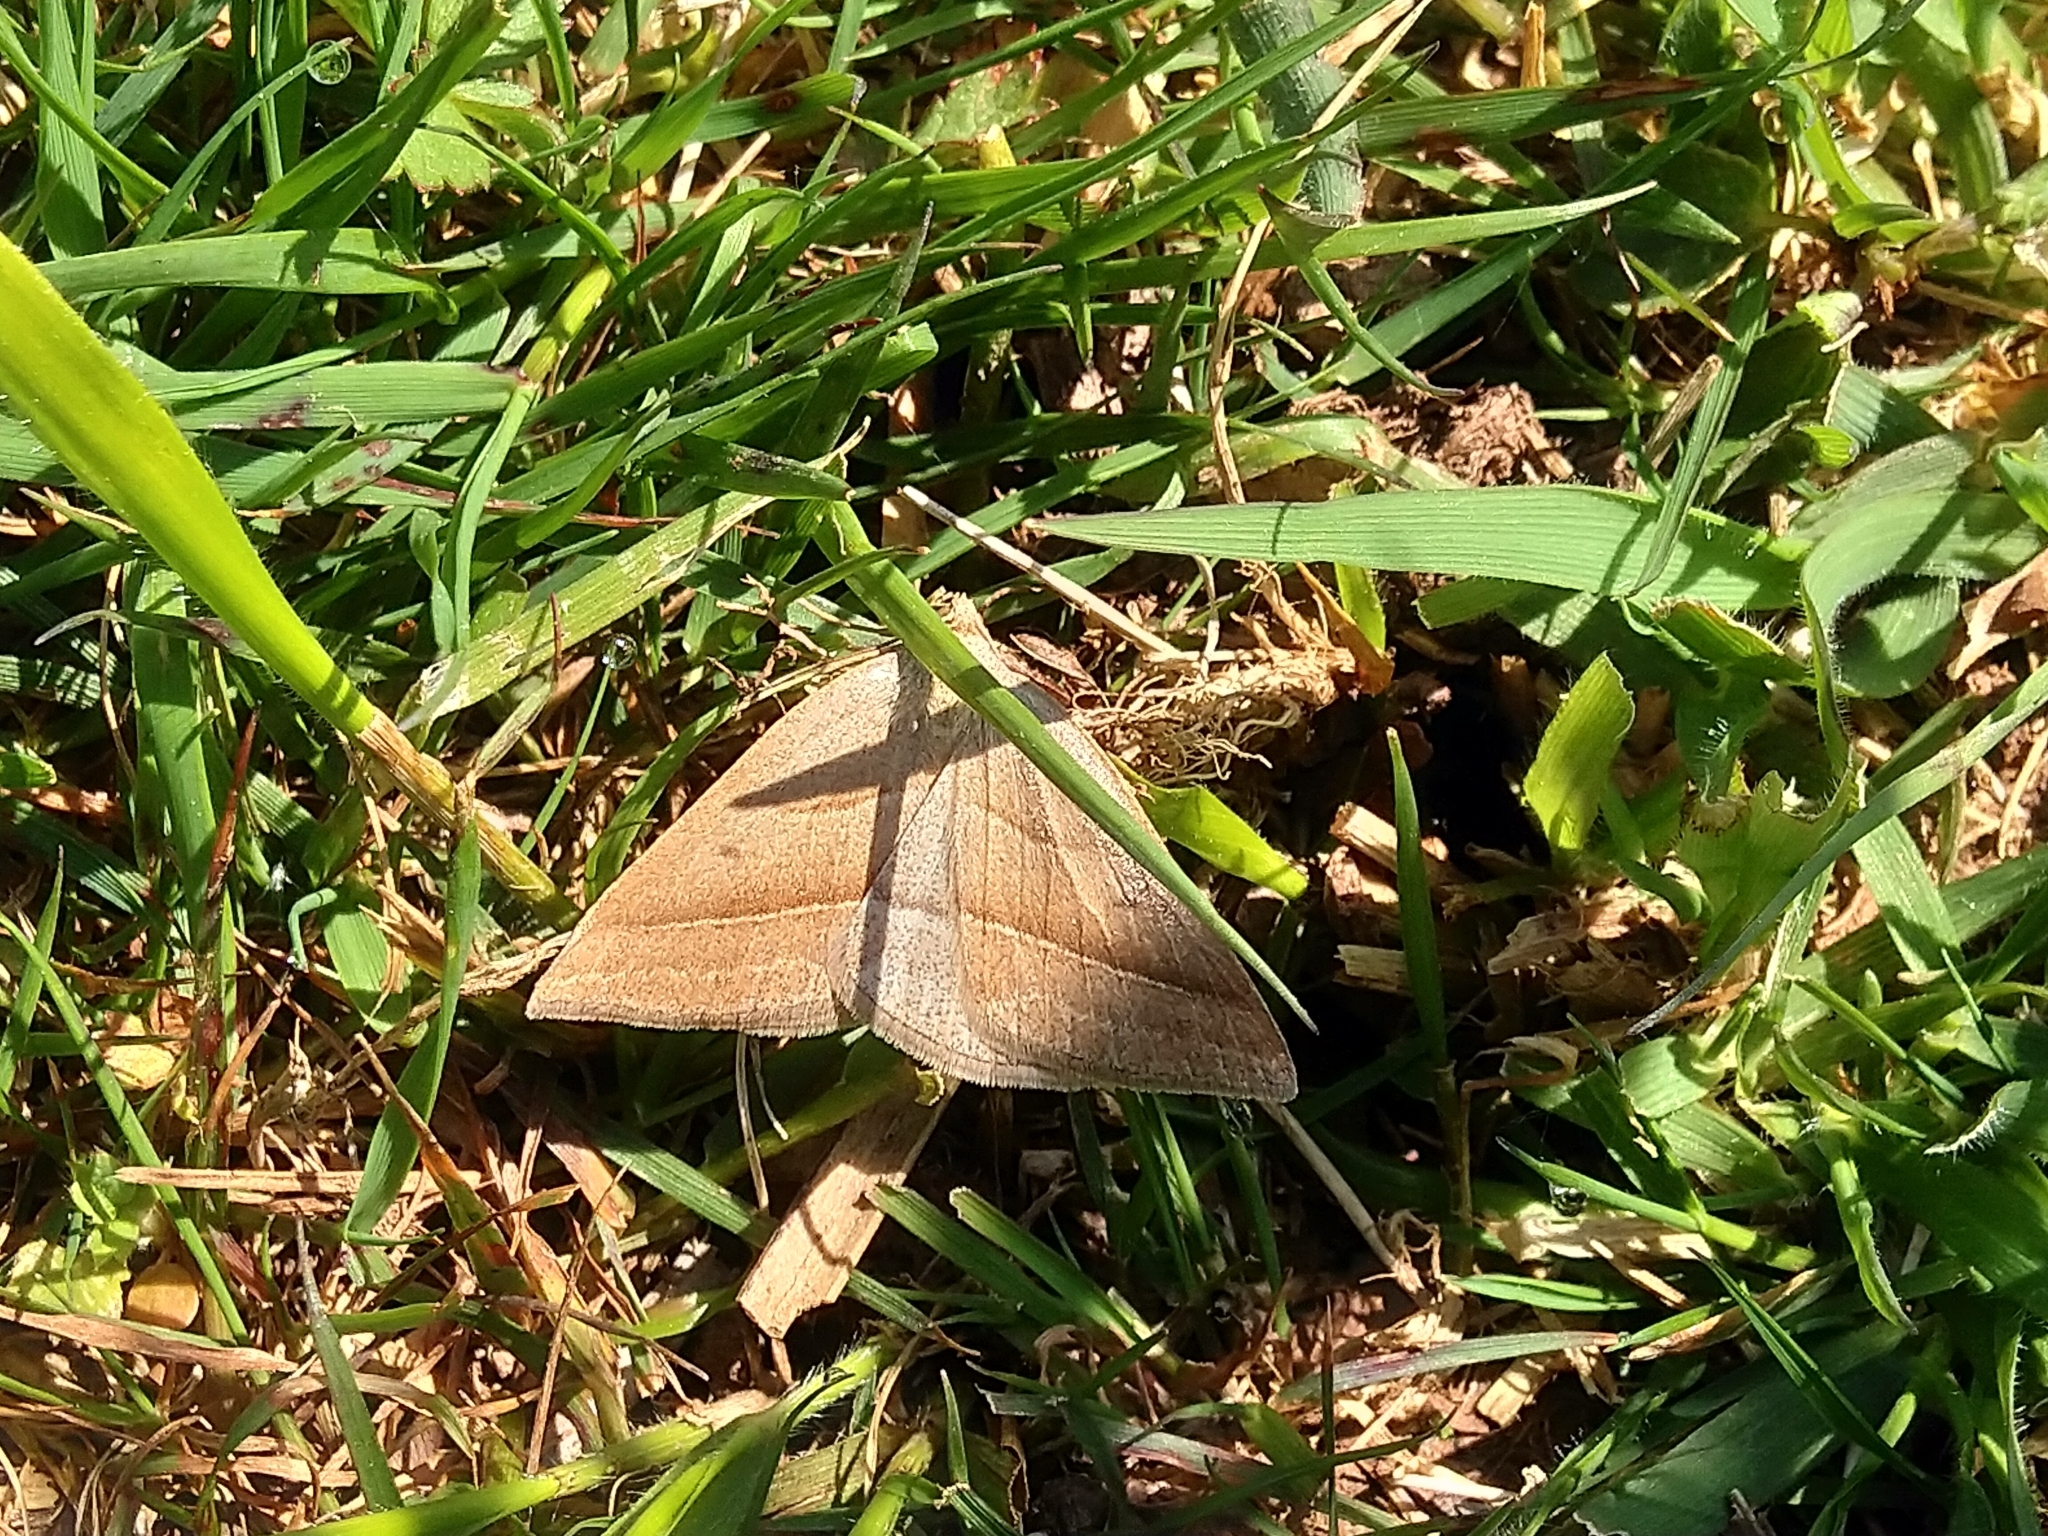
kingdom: Animalia
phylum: Arthropoda
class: Insecta
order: Lepidoptera
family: Pterophoridae
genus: Pterophorus
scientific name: Pterophorus Petrophora chlorosata
